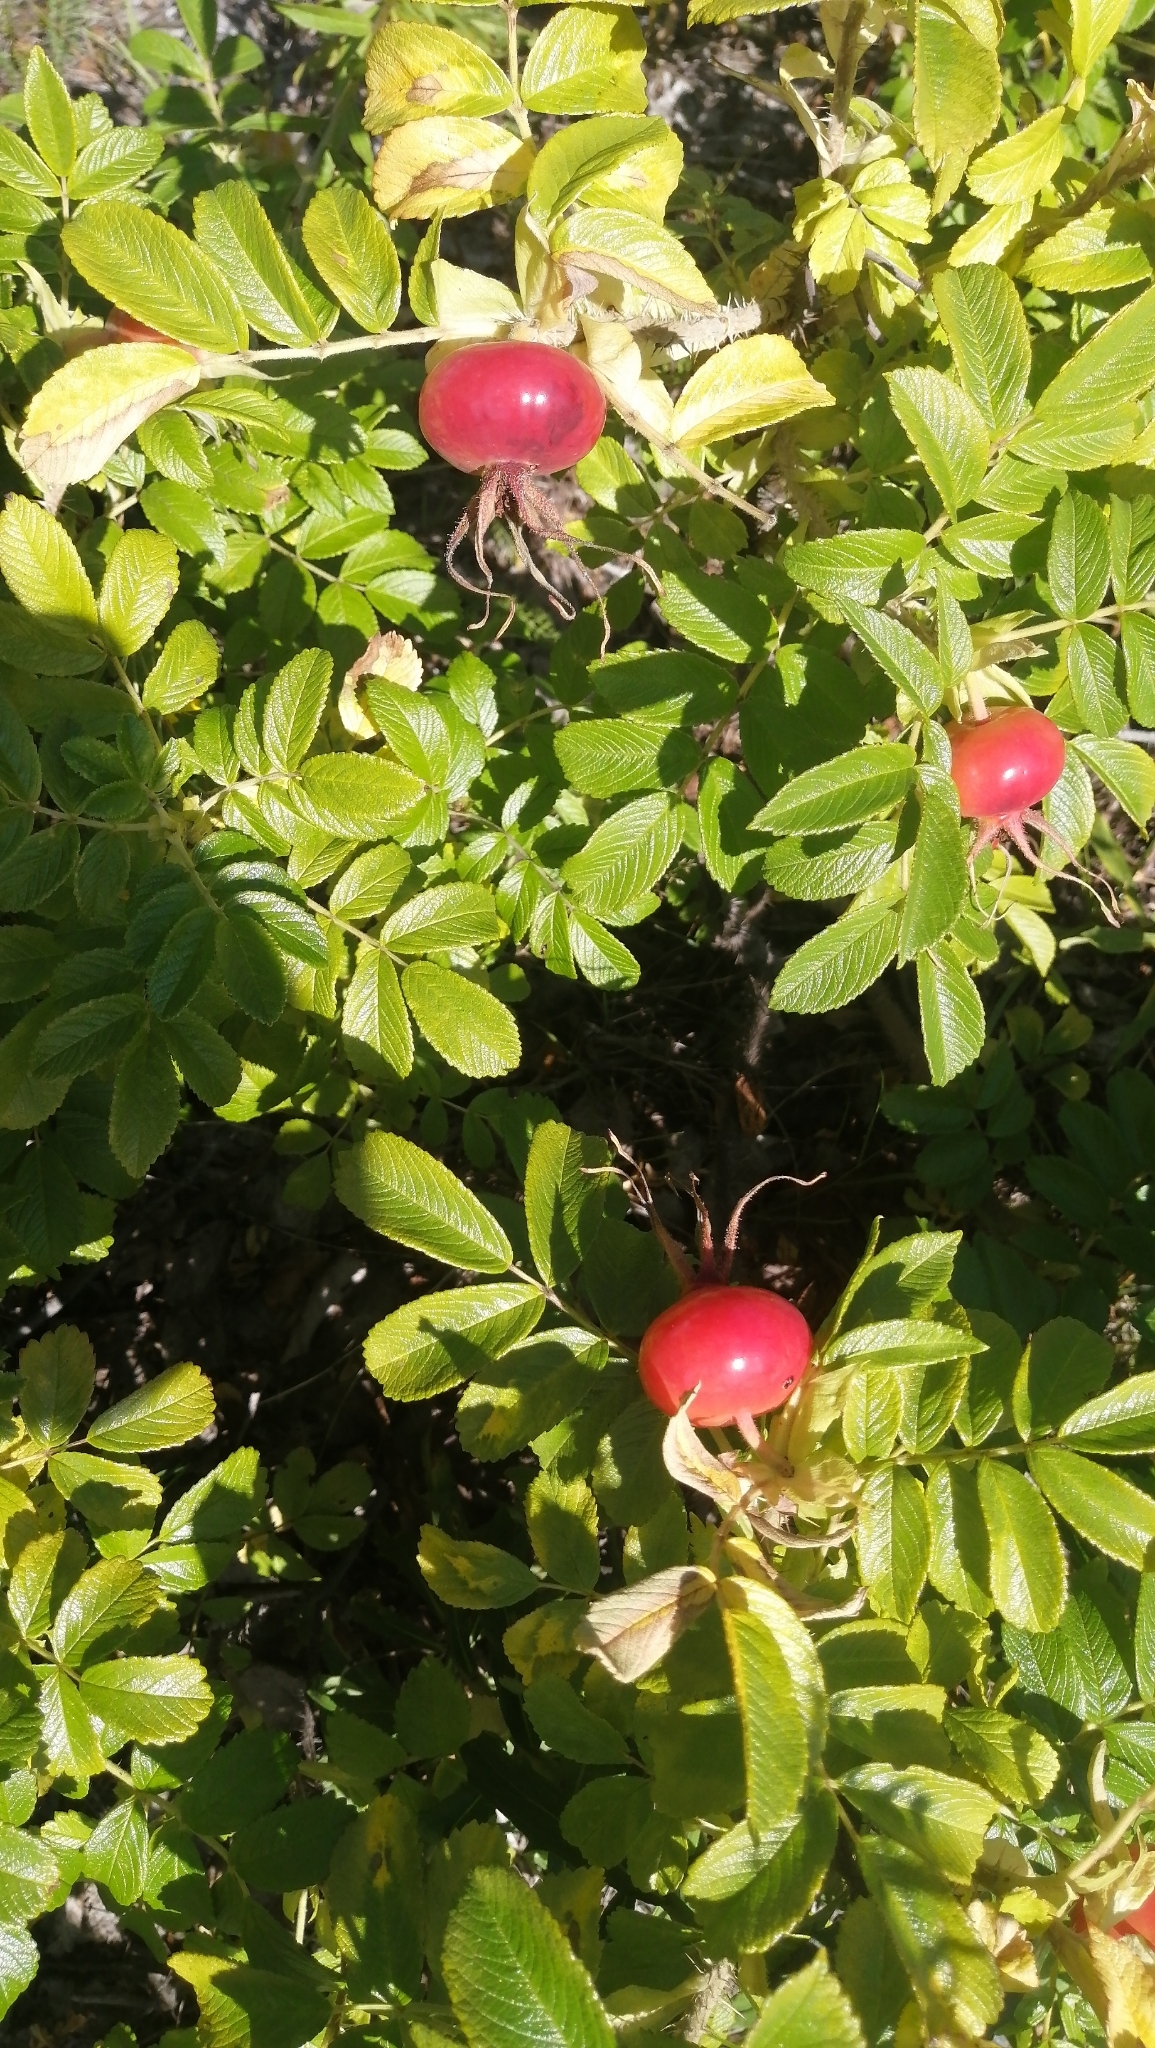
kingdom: Plantae
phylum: Tracheophyta
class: Magnoliopsida
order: Rosales
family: Rosaceae
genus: Rosa
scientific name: Rosa rugosa
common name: Japanese rose
